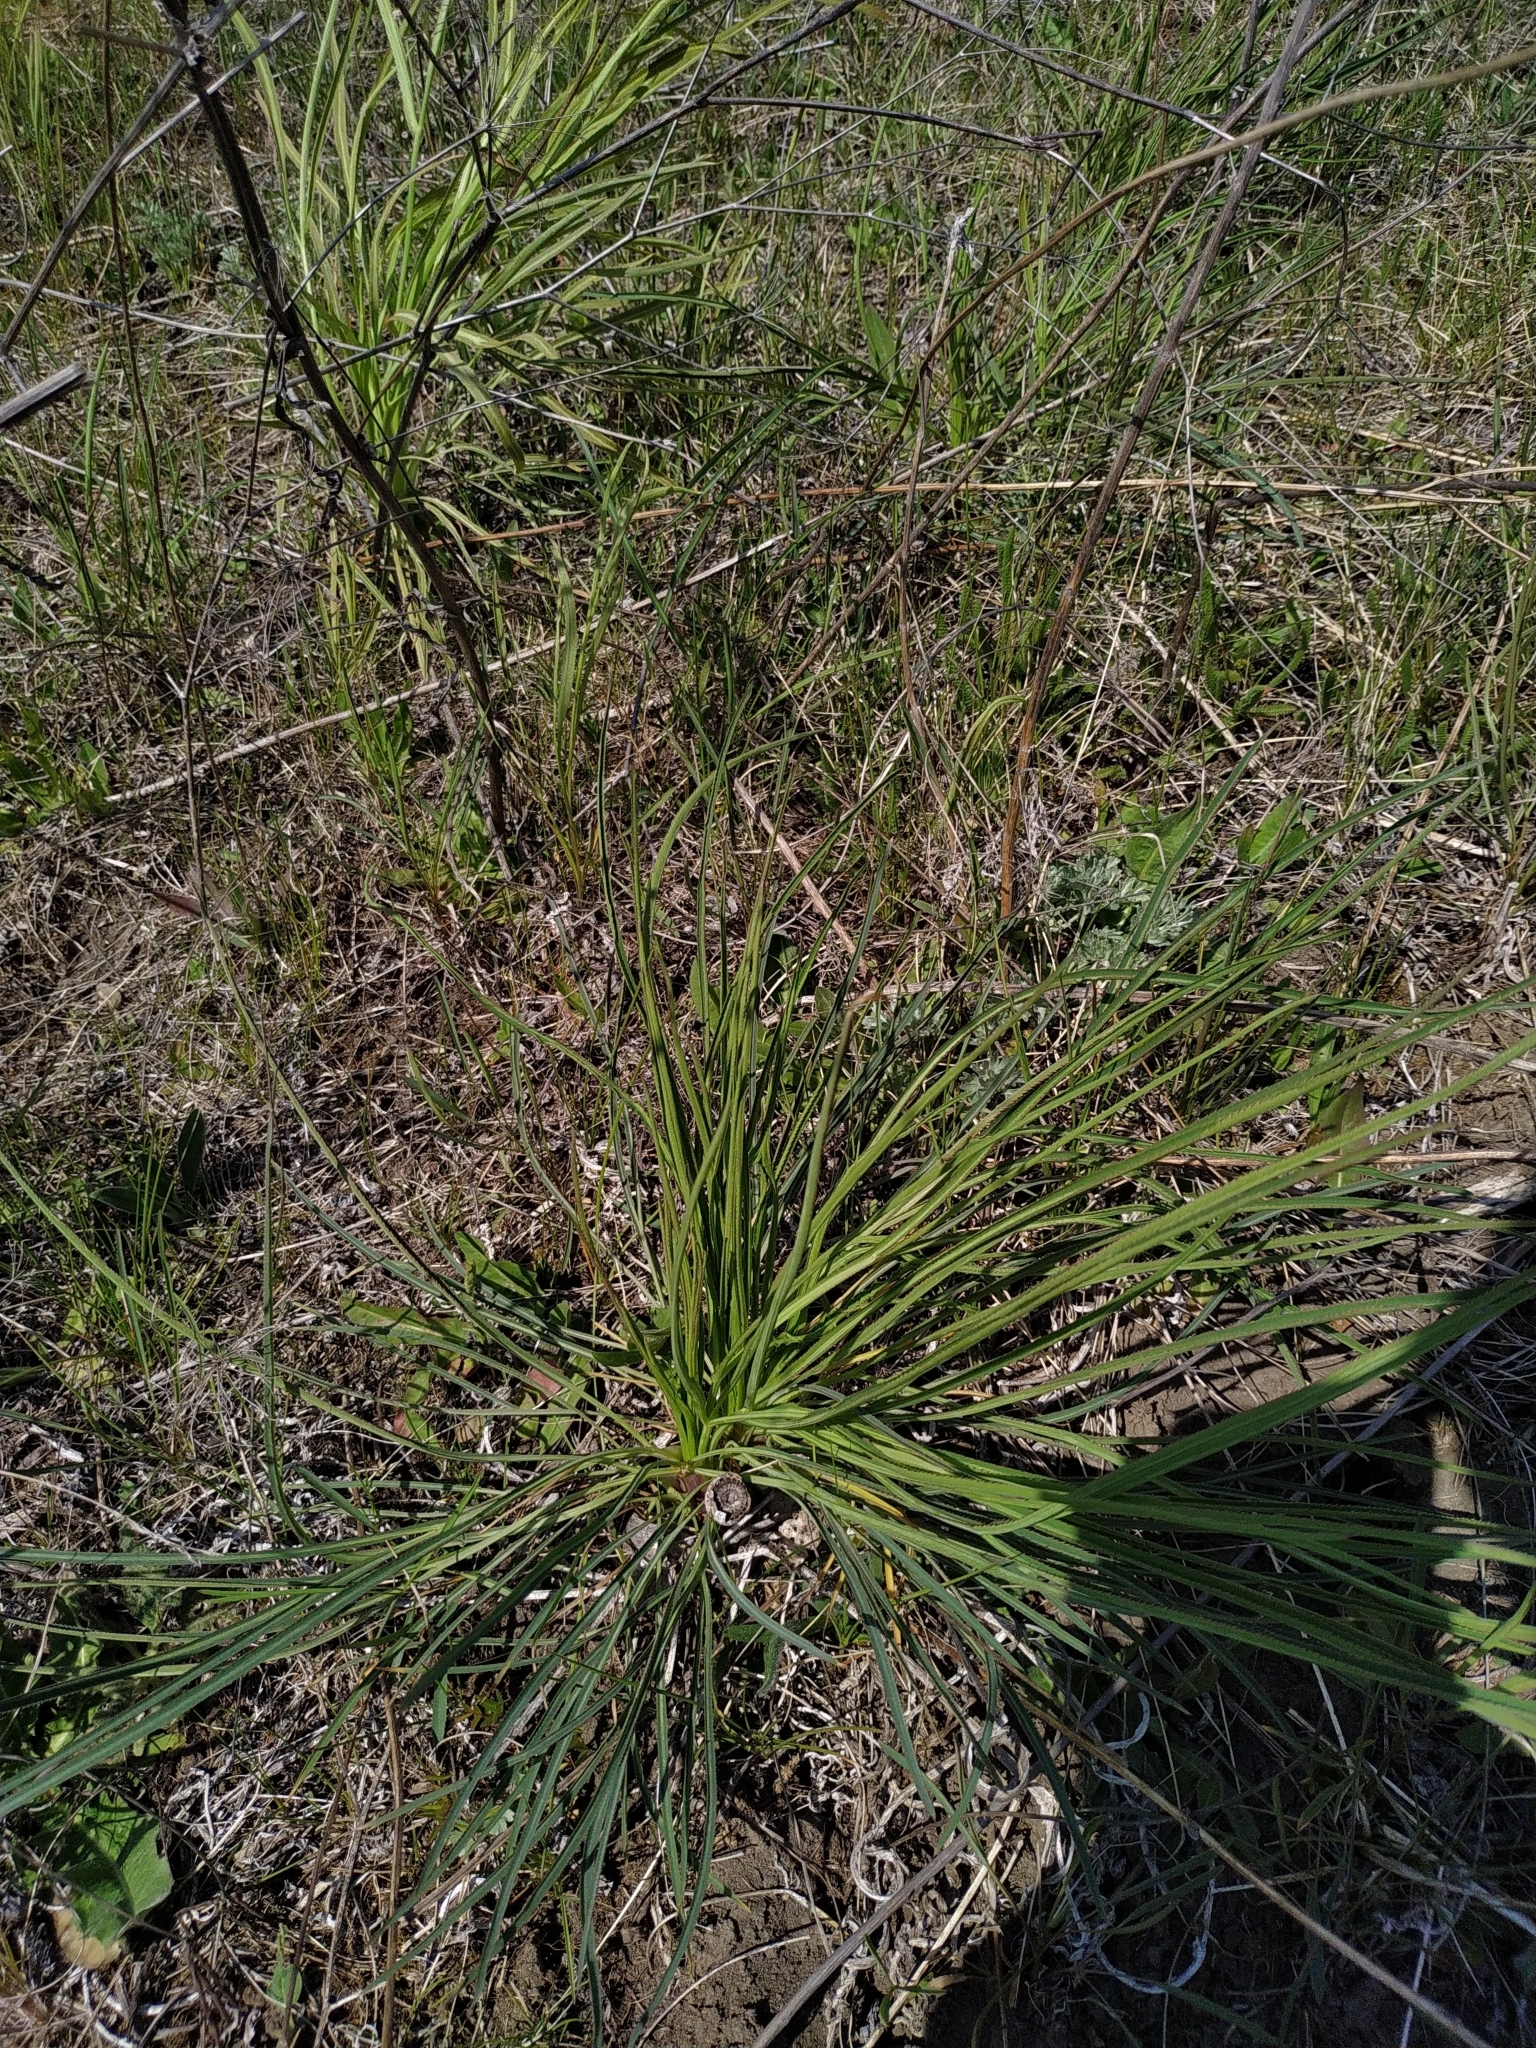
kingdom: Plantae
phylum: Tracheophyta
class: Magnoliopsida
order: Apiales
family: Apiaceae
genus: Falcaria
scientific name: Falcaria vulgaris
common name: Longleaf
